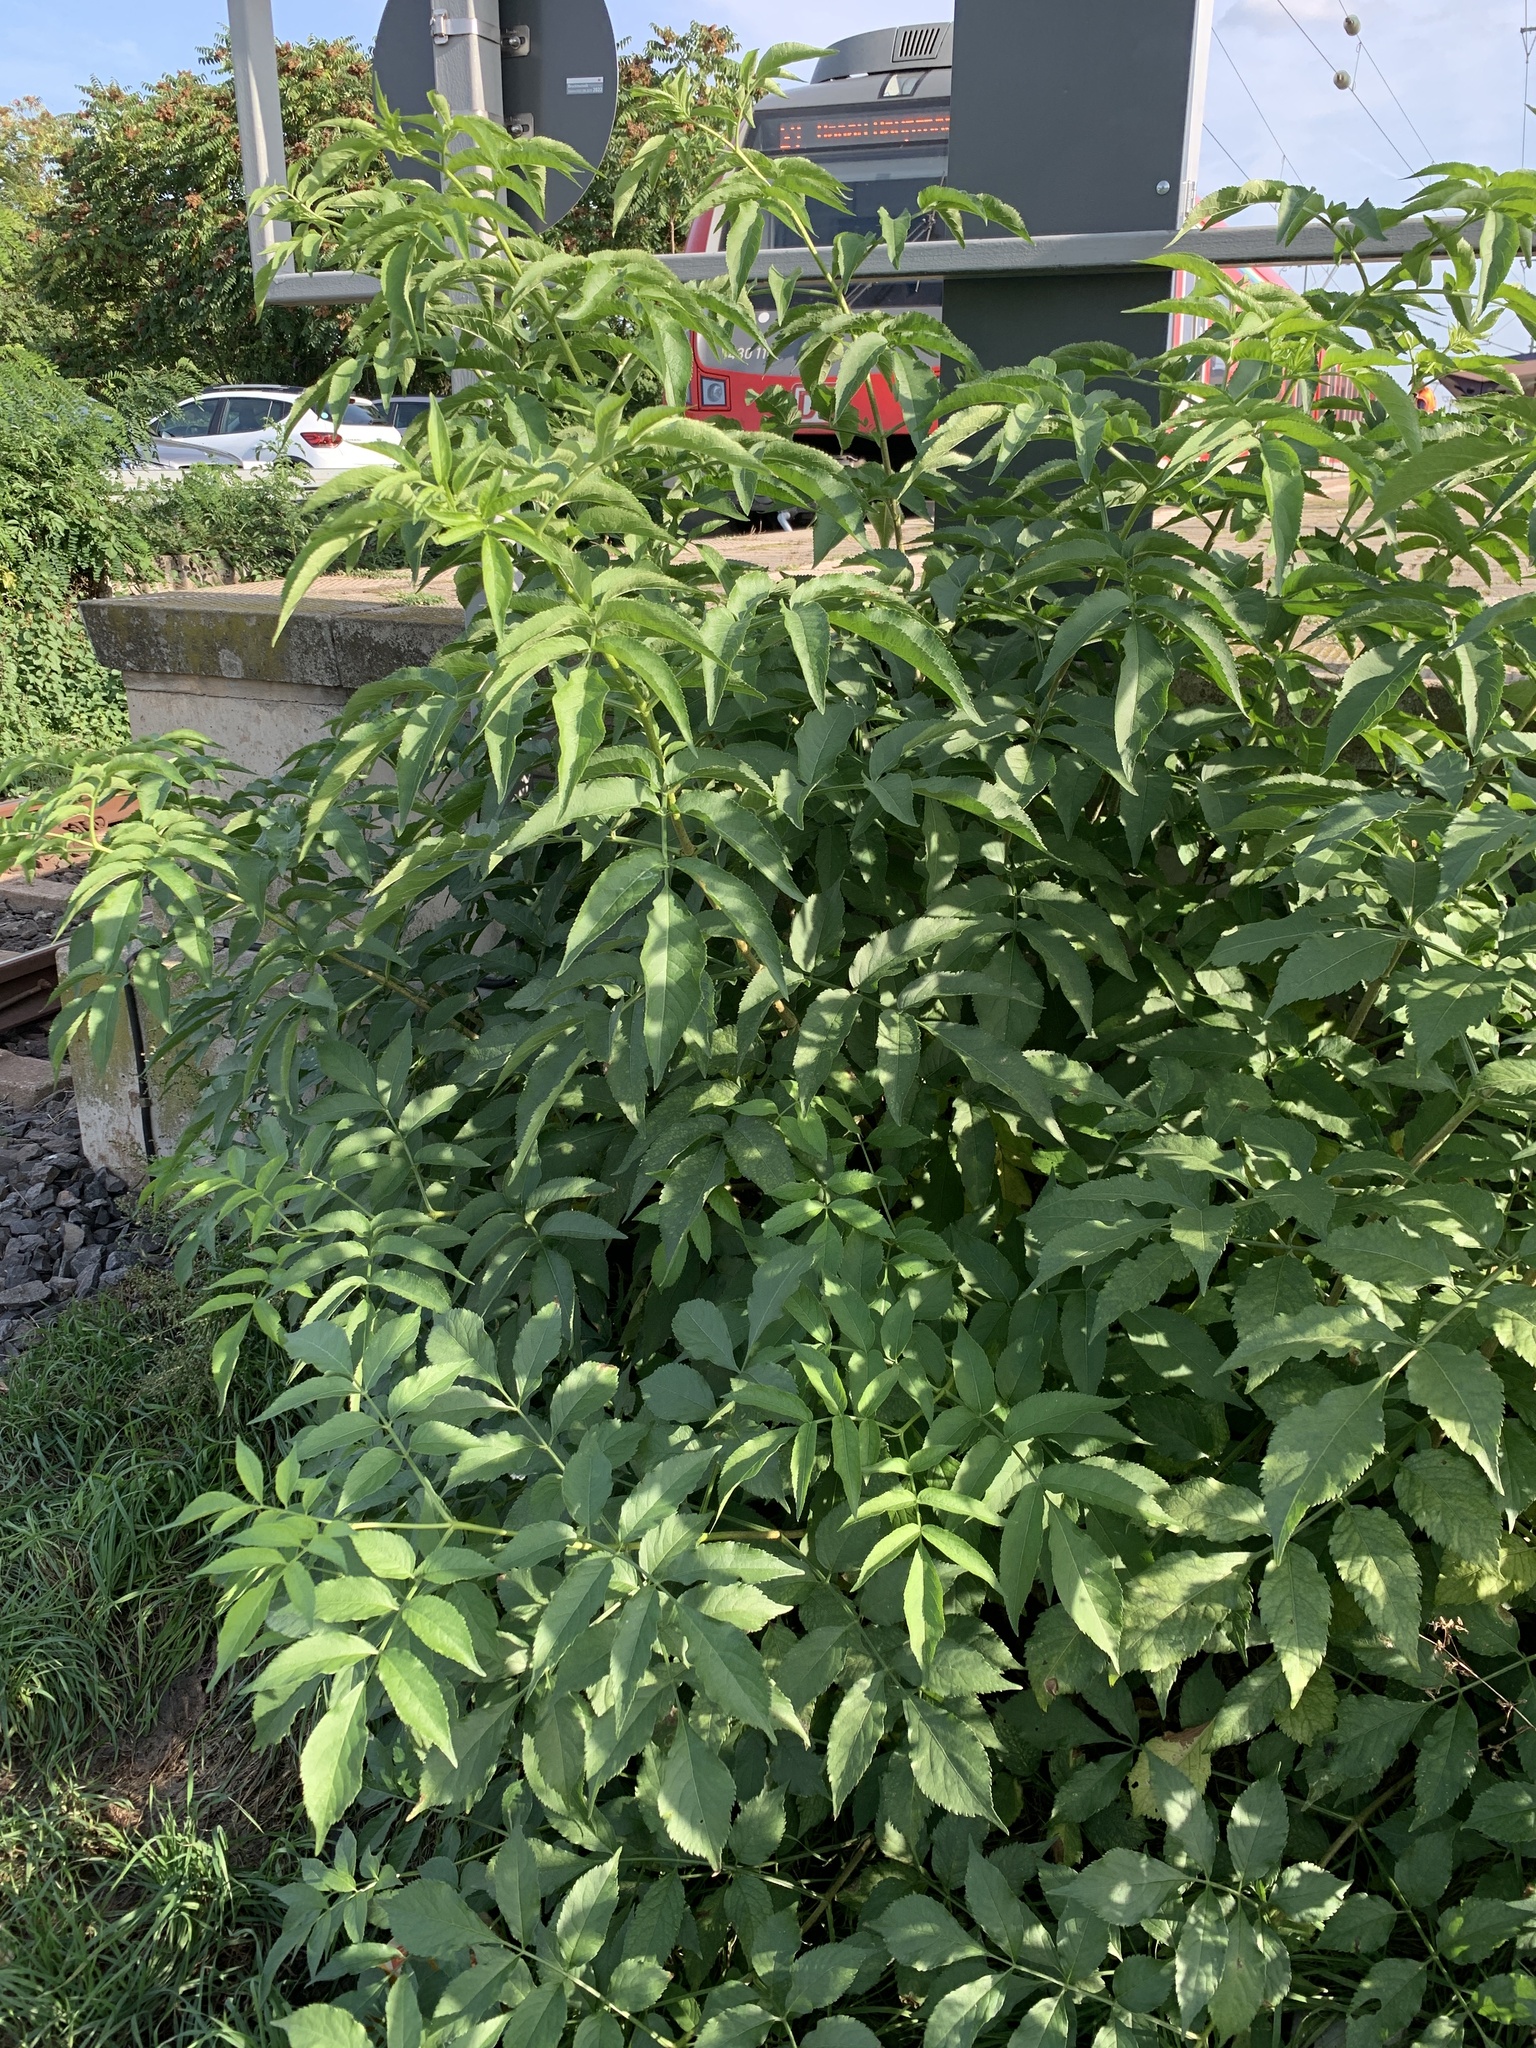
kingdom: Plantae
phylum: Tracheophyta
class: Magnoliopsida
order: Dipsacales
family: Viburnaceae
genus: Sambucus
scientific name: Sambucus nigra
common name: Elder
